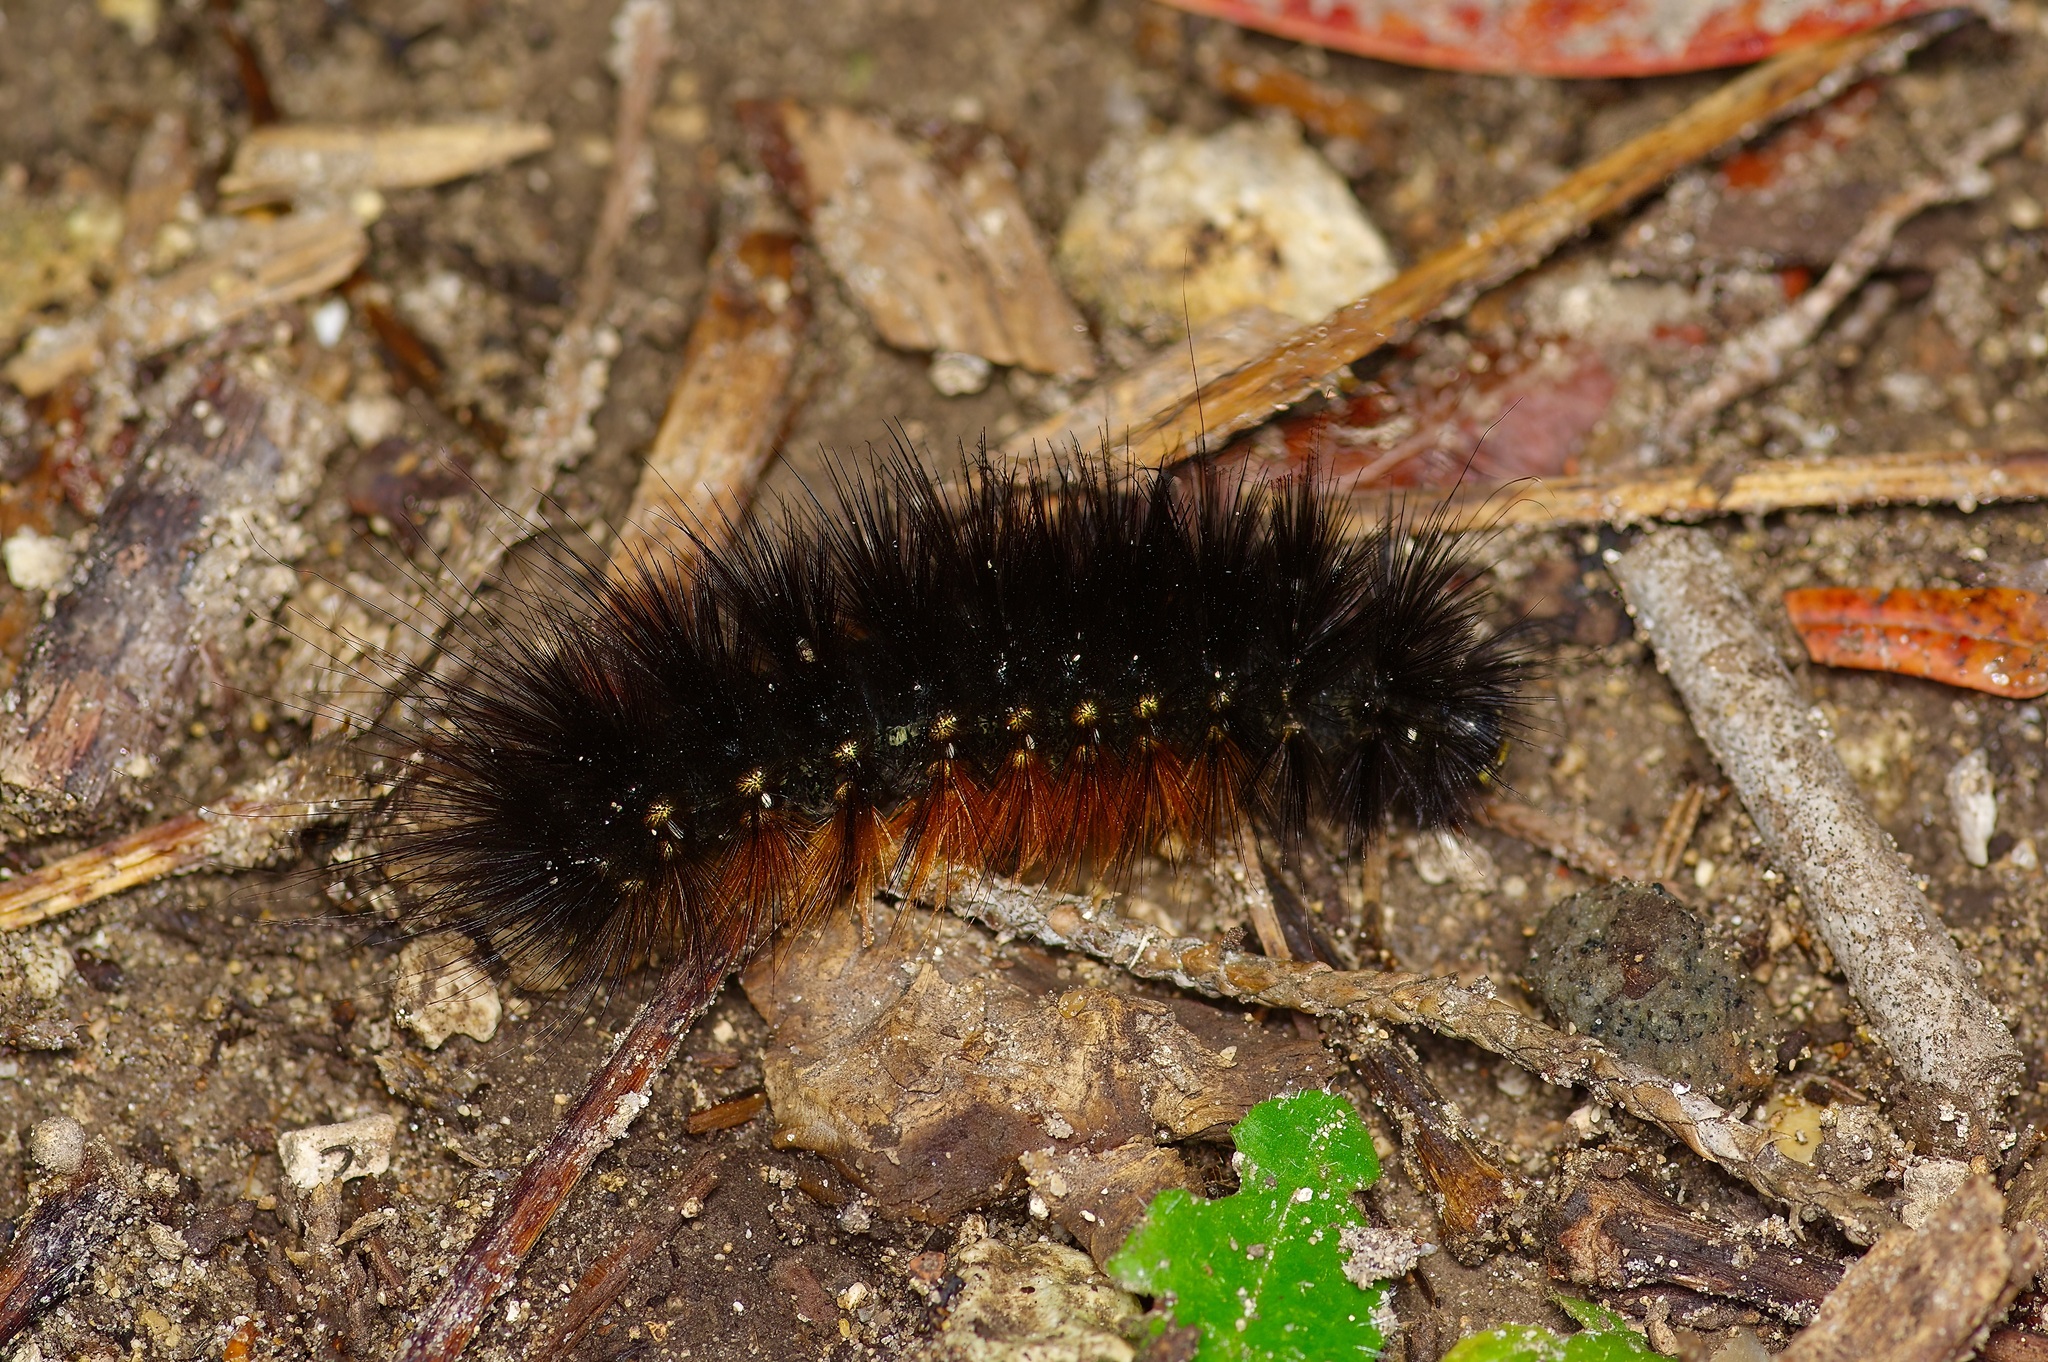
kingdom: Animalia
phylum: Arthropoda
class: Insecta
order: Lepidoptera
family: Erebidae
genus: Estigmene
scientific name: Estigmene acrea
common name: Salt marsh moth
